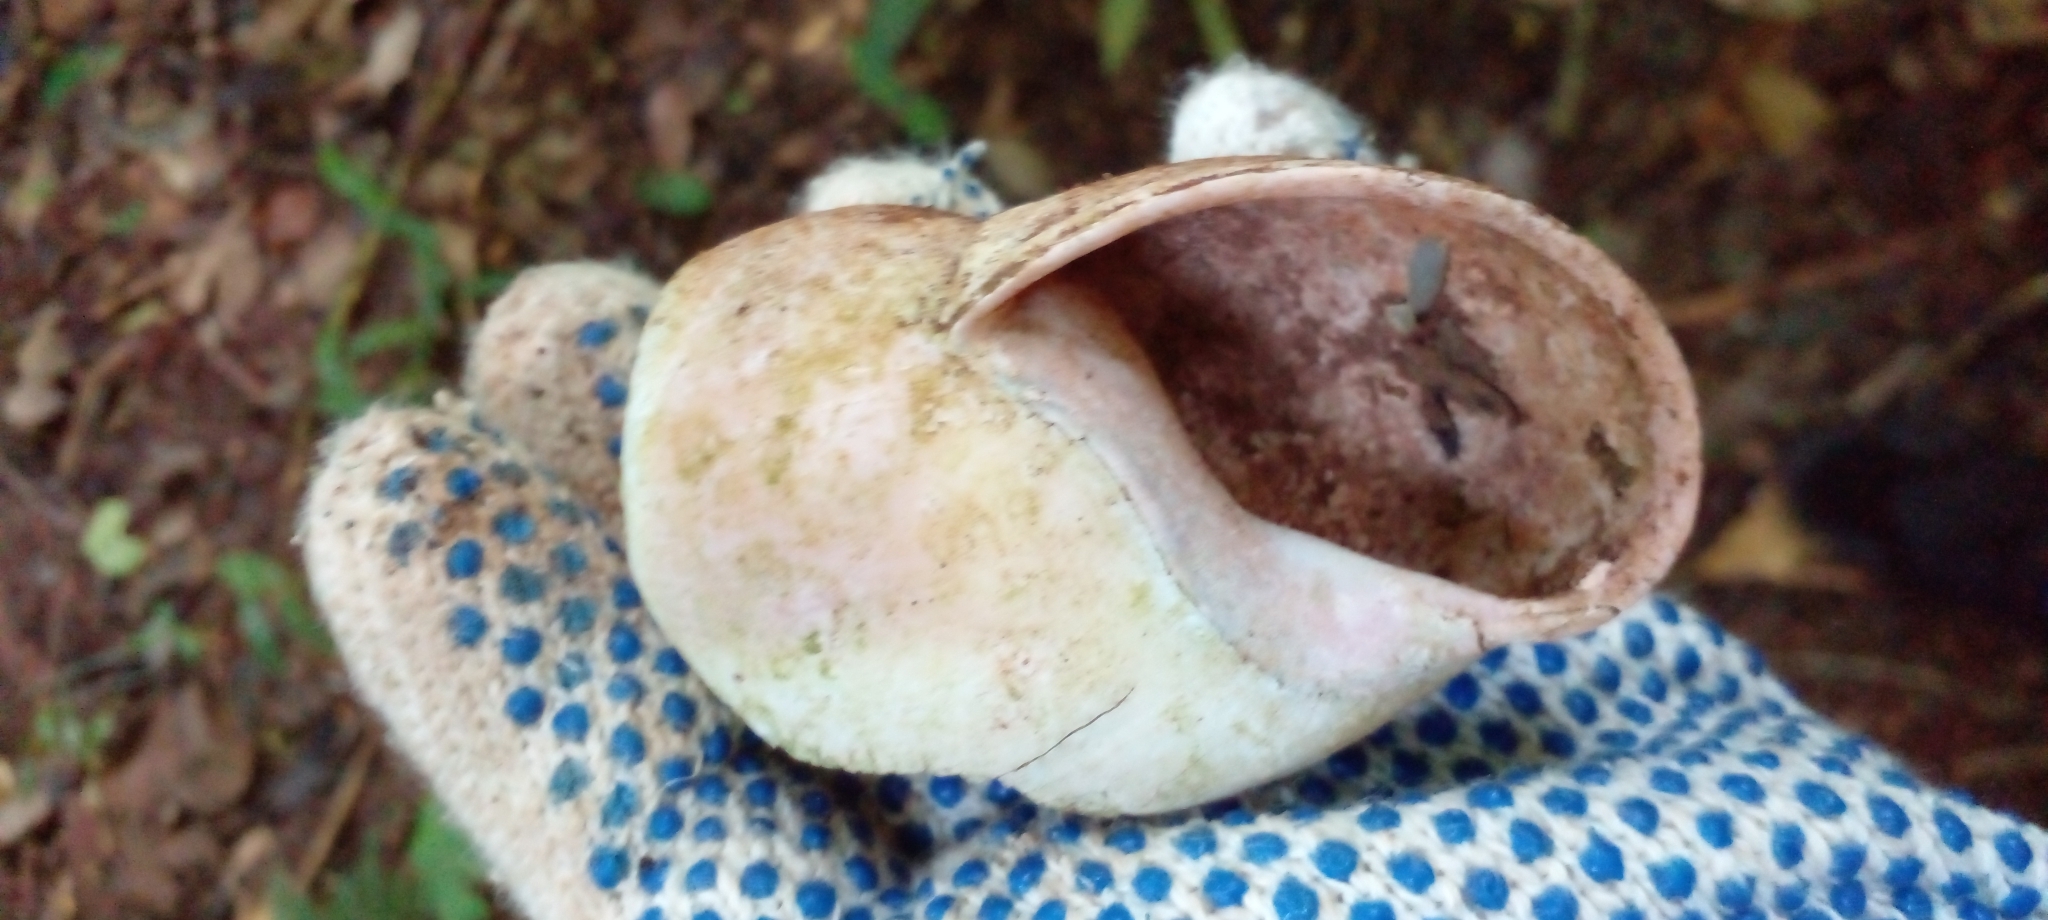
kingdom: Animalia
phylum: Mollusca
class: Gastropoda
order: Stylommatophora
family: Strophocheilidae
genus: Megalobulimus
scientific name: Megalobulimus oblongus
